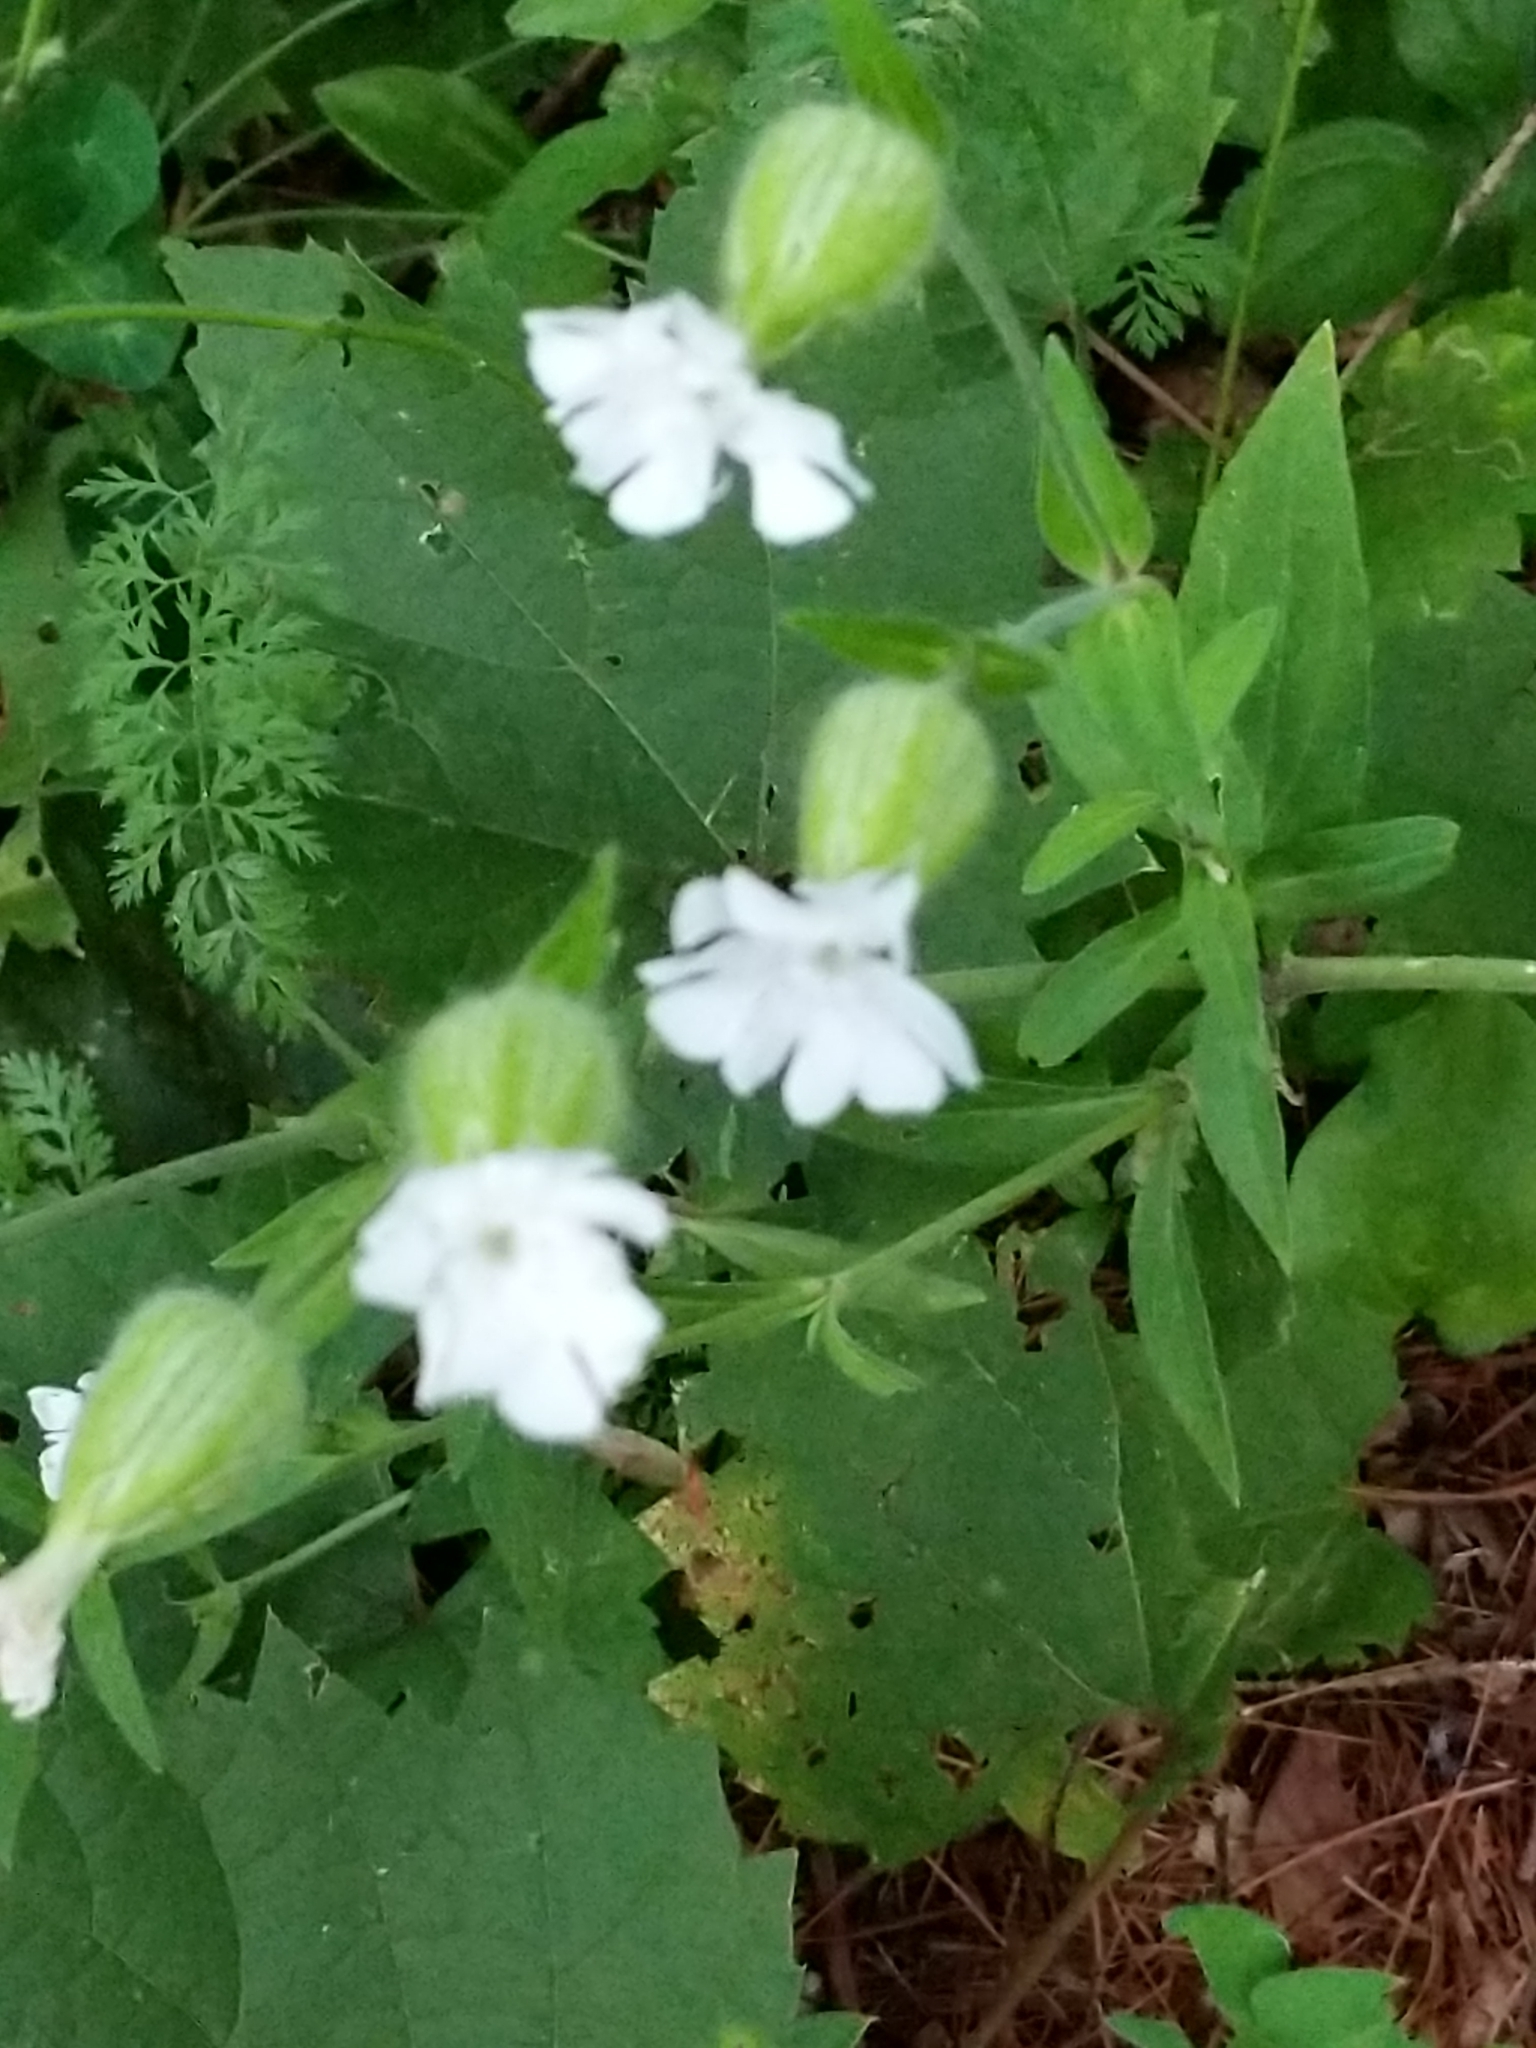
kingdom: Plantae
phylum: Tracheophyta
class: Magnoliopsida
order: Caryophyllales
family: Caryophyllaceae
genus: Silene
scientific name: Silene latifolia
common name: White campion
